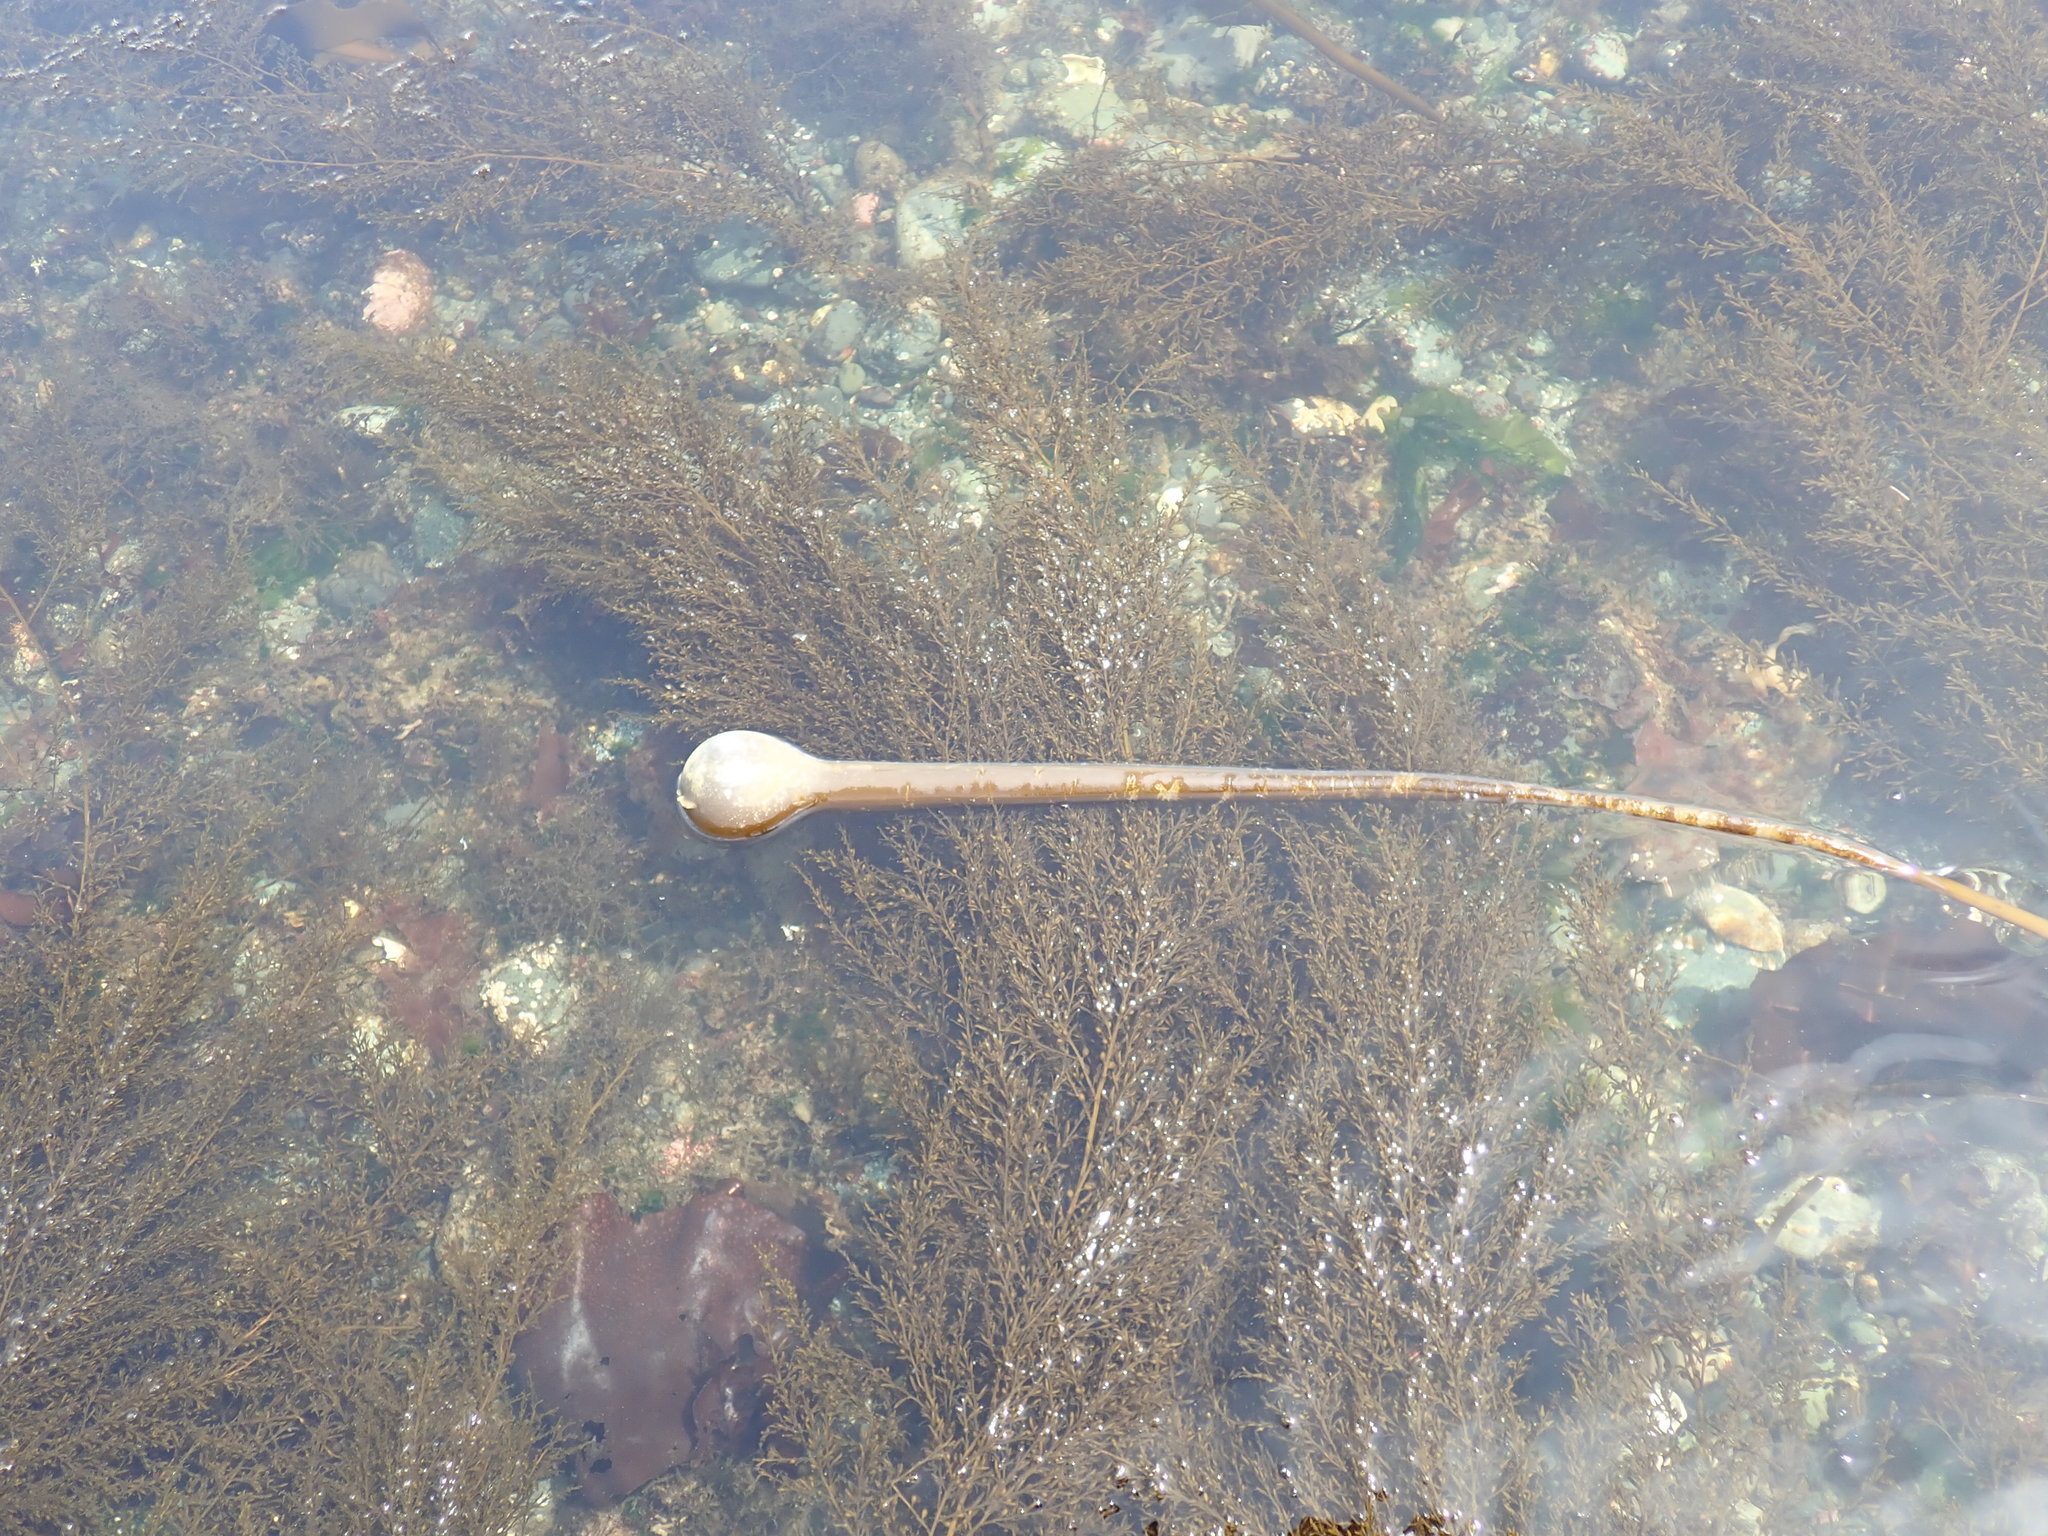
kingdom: Chromista
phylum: Ochrophyta
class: Phaeophyceae
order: Laminariales
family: Laminariaceae
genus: Nereocystis
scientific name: Nereocystis luetkeana
